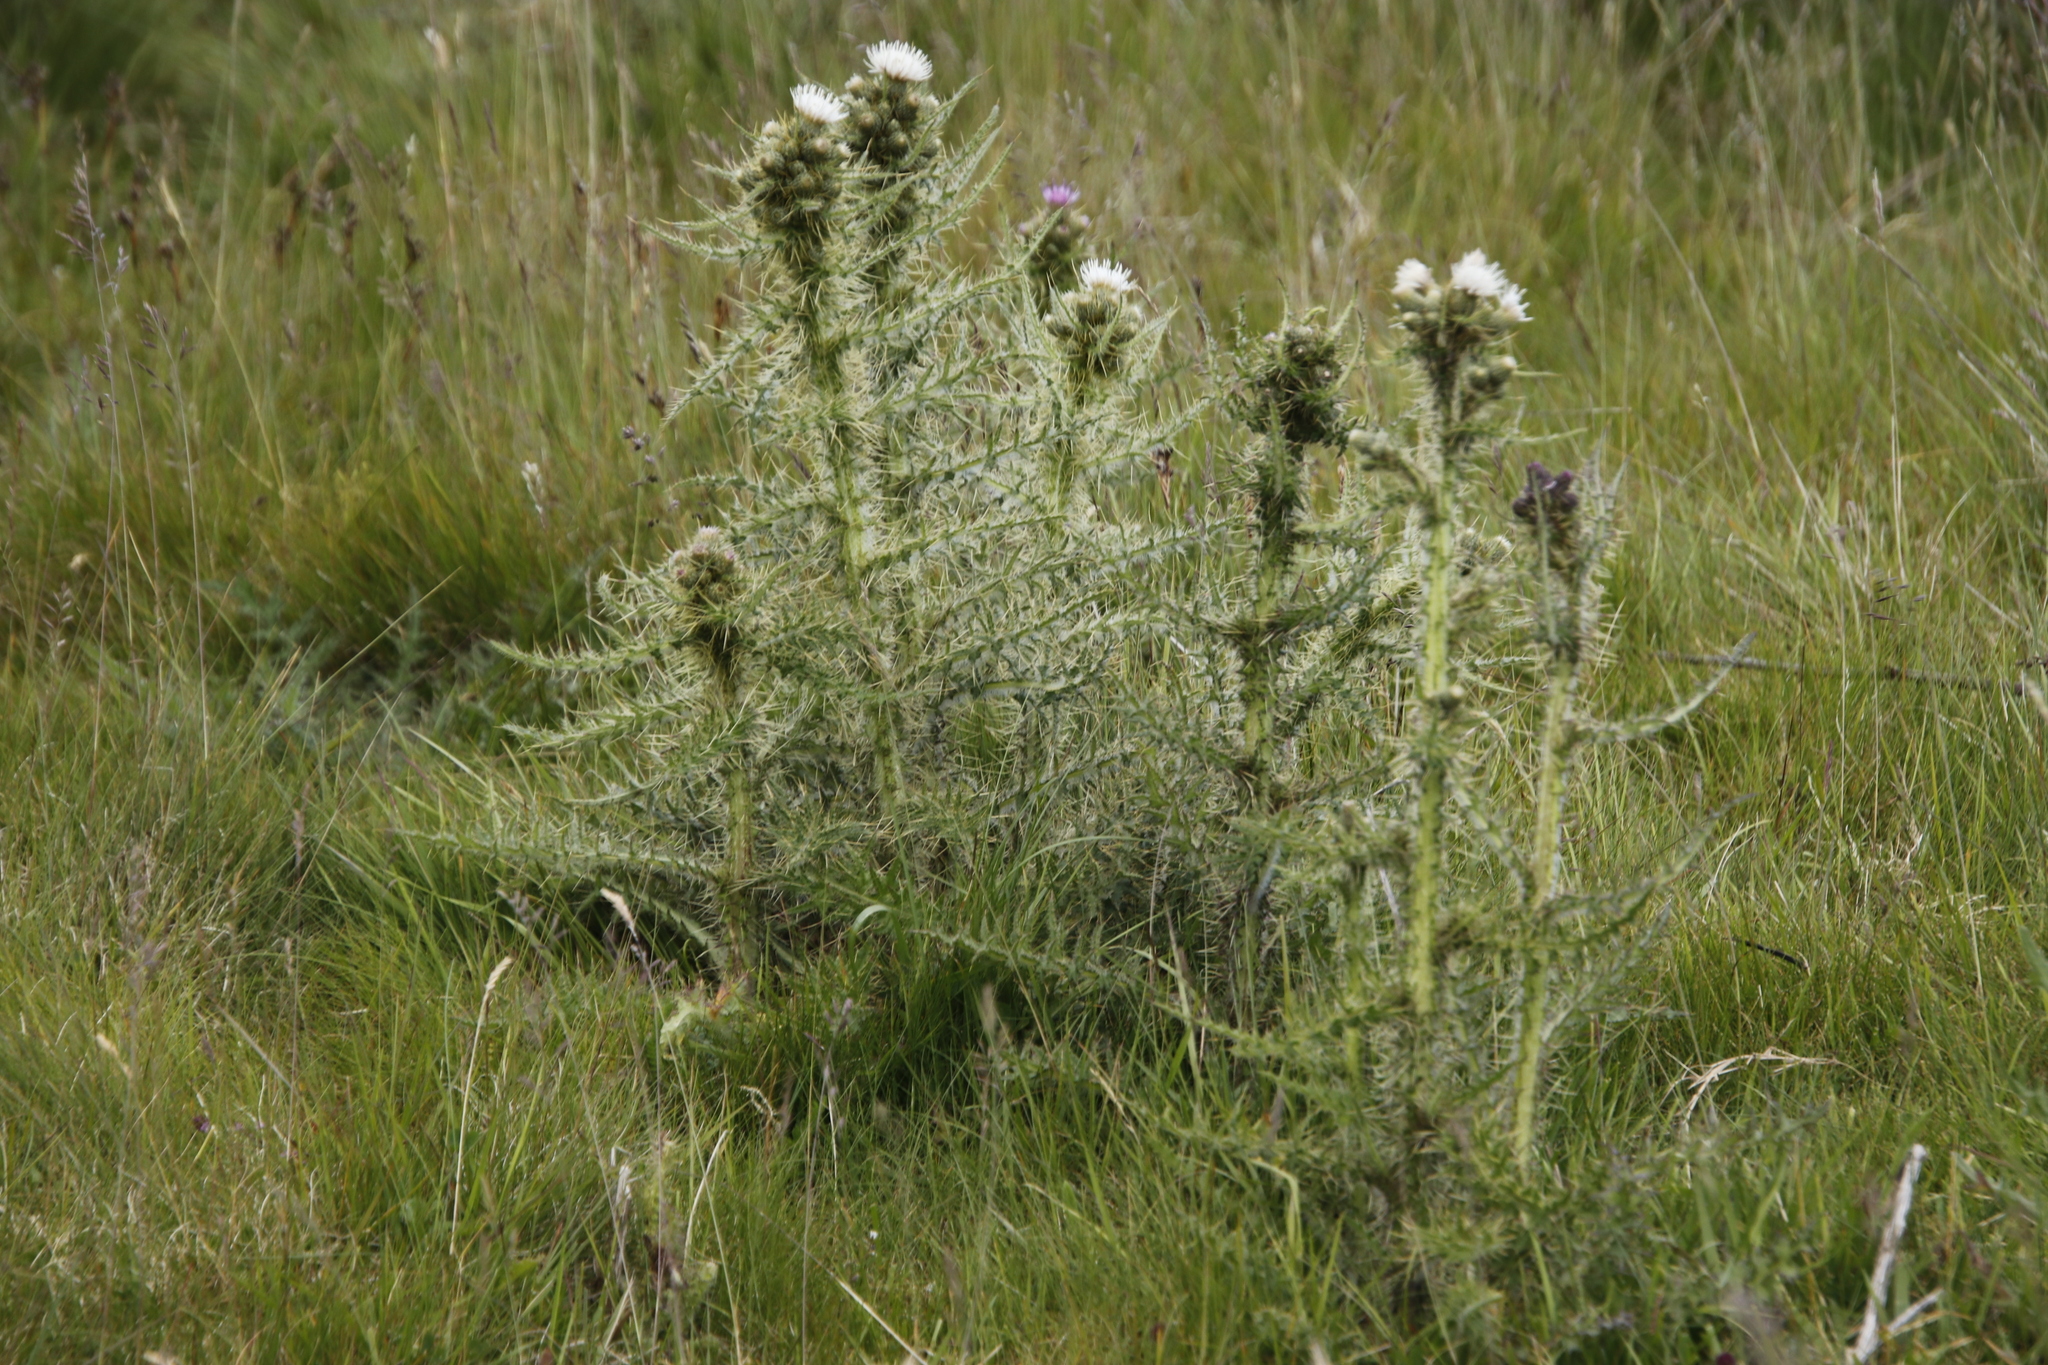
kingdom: Plantae
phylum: Tracheophyta
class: Magnoliopsida
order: Asterales
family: Asteraceae
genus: Cirsium
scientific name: Cirsium palustre
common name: Marsh thistle
